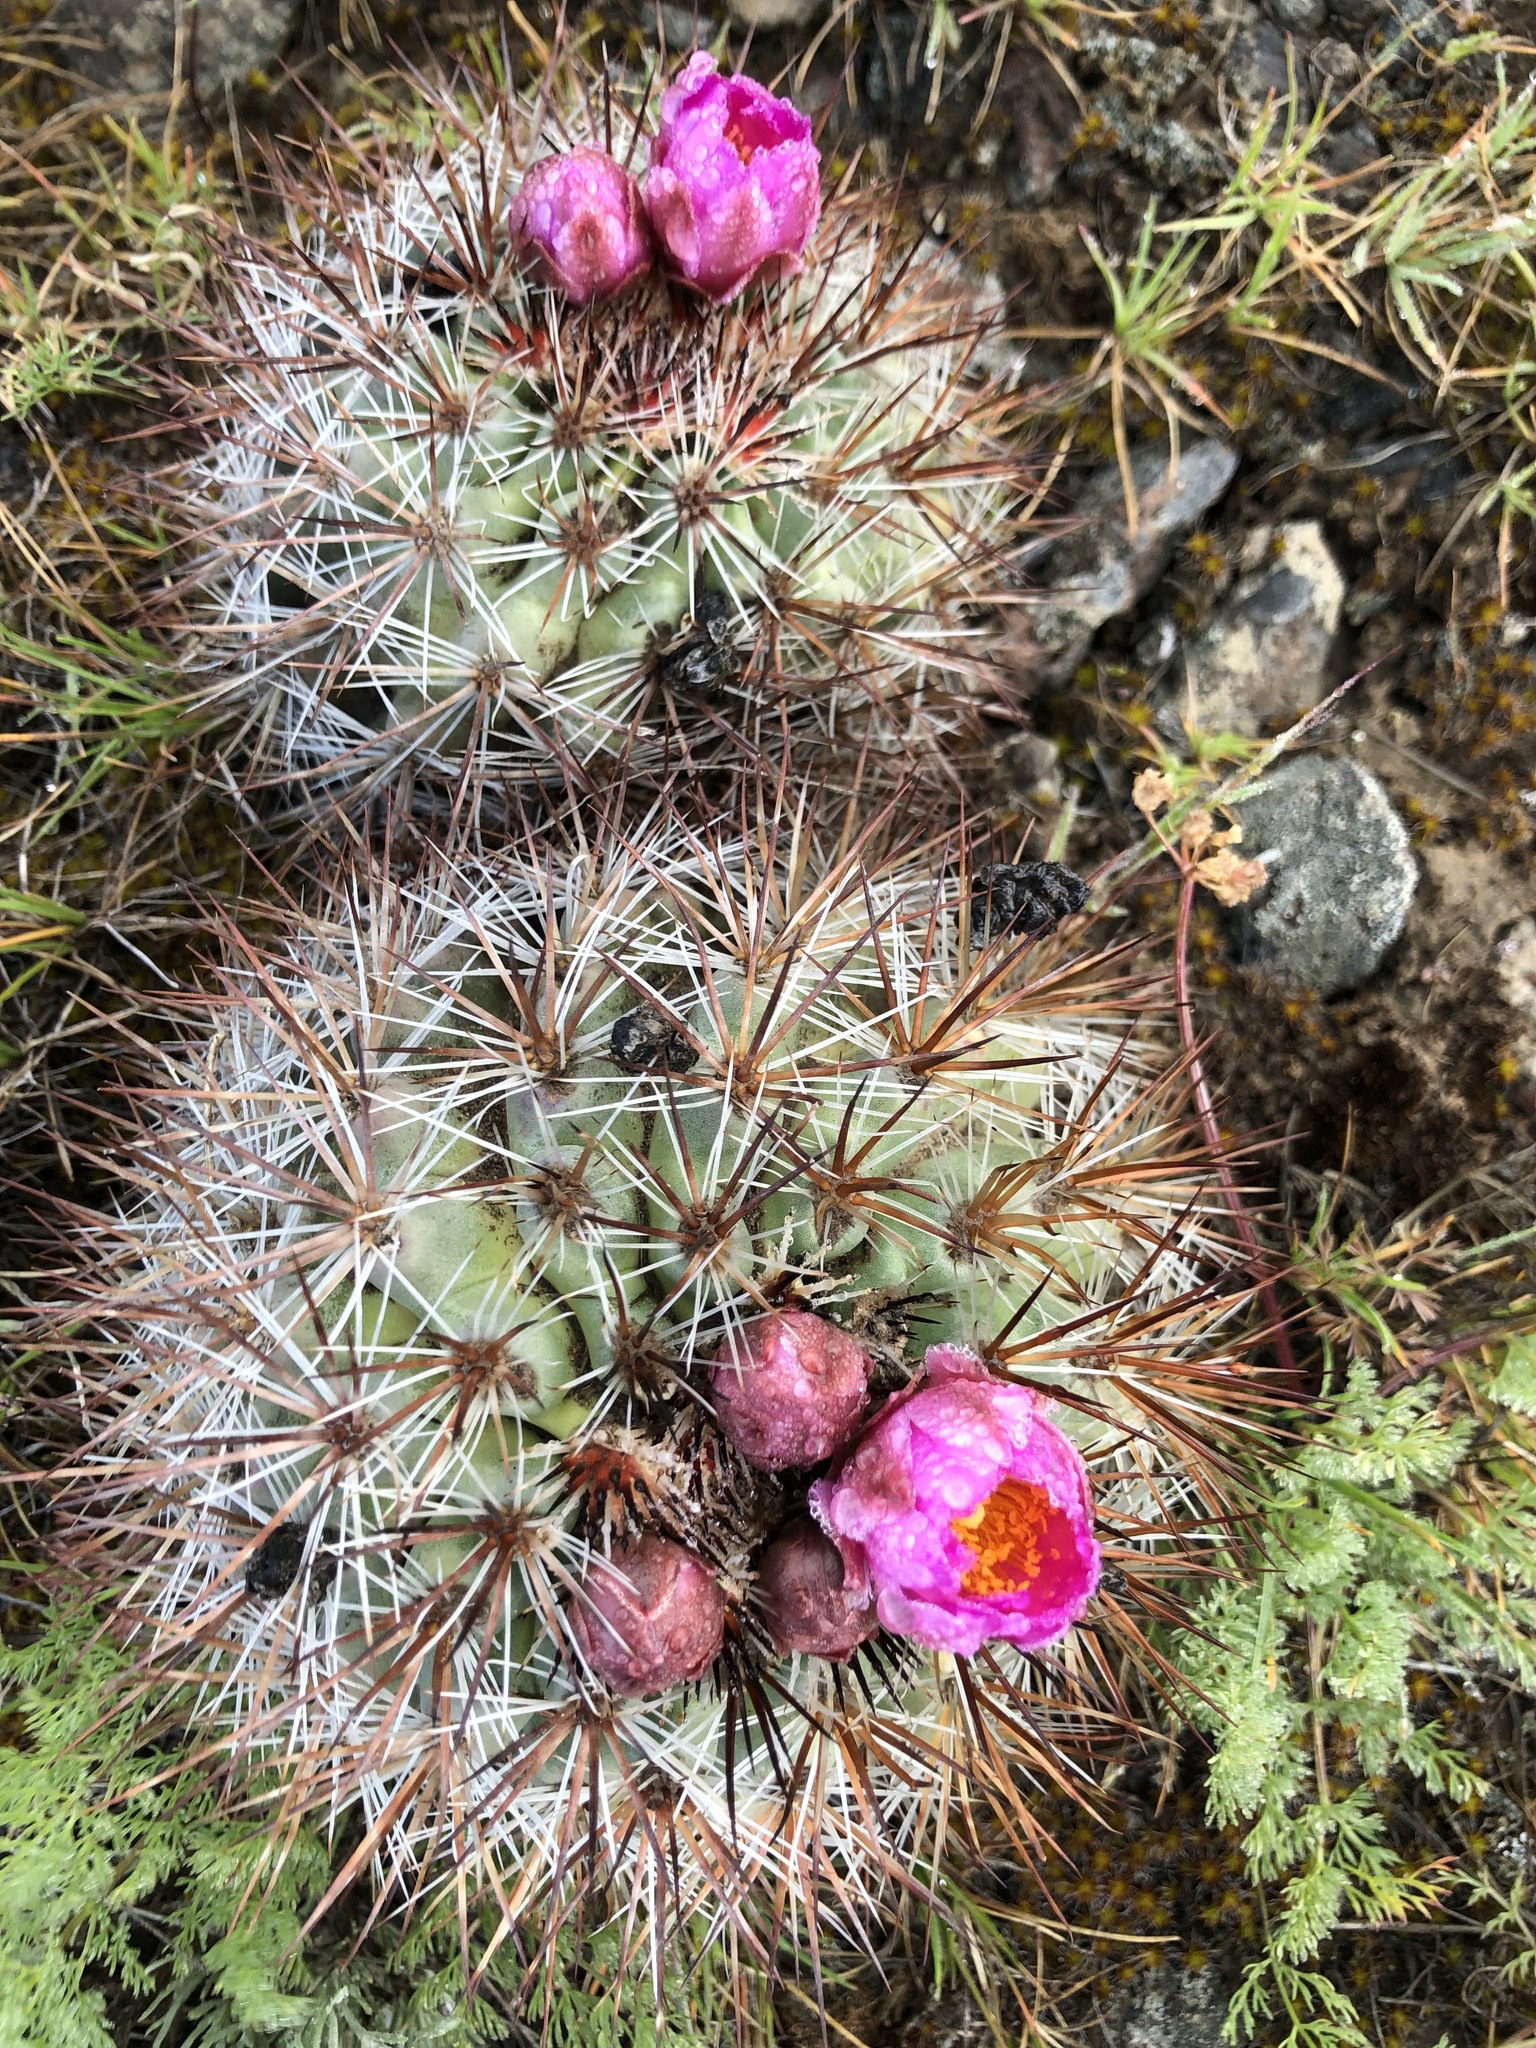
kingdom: Plantae
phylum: Tracheophyta
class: Magnoliopsida
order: Caryophyllales
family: Cactaceae
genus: Pediocactus
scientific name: Pediocactus nigrispinus
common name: Simpson's hedgehog cactus
